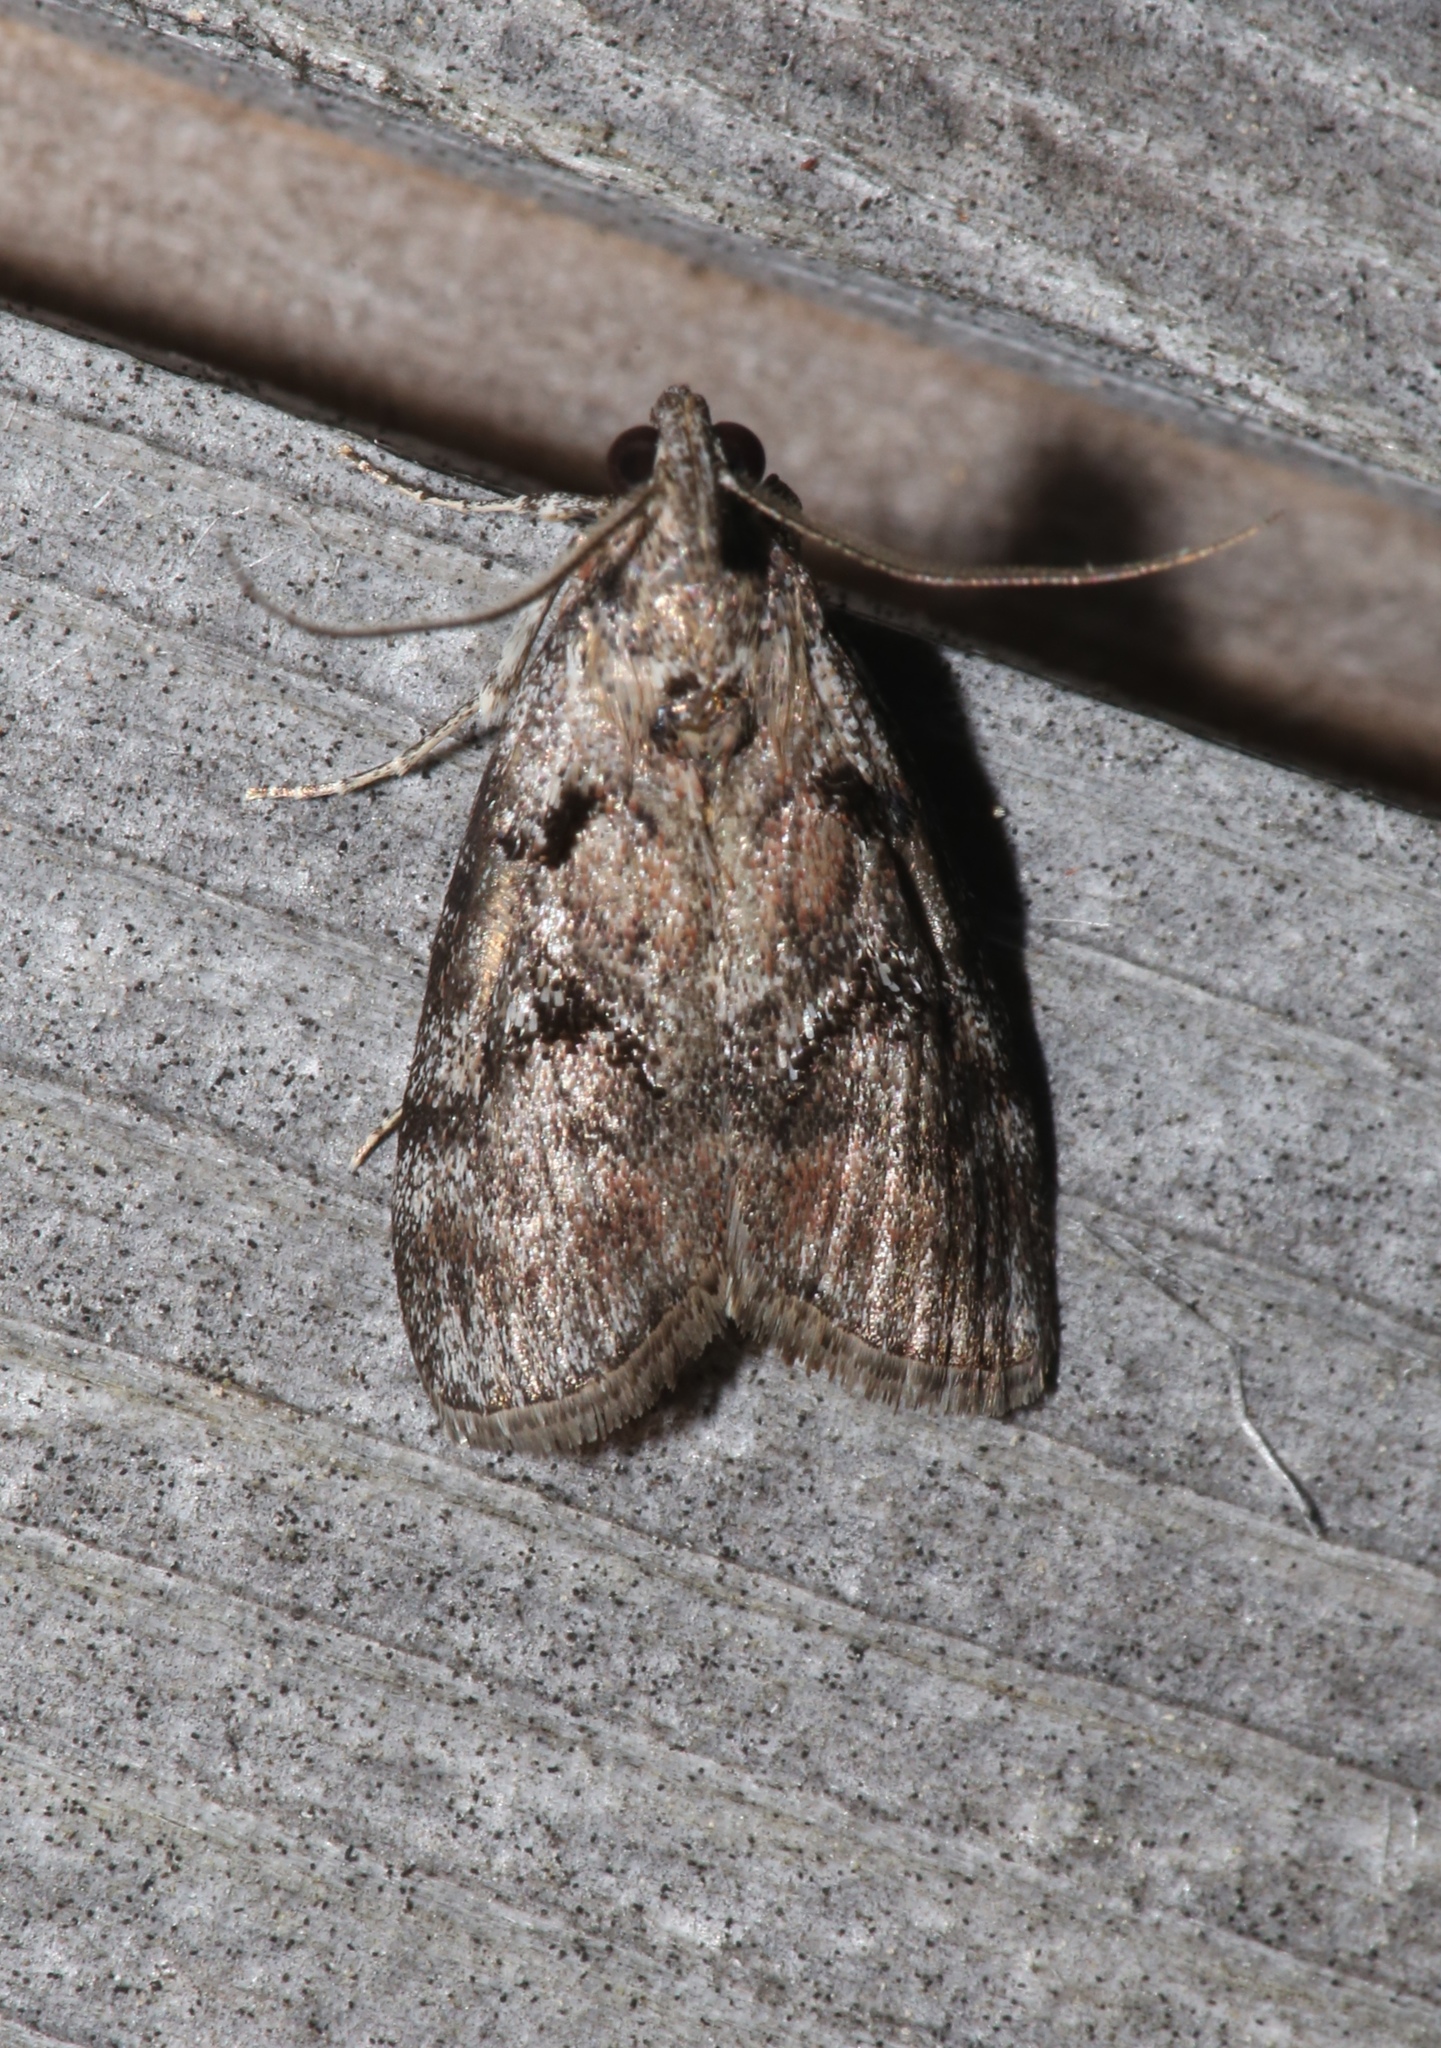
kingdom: Animalia
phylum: Arthropoda
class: Insecta
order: Lepidoptera
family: Pyralidae
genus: Pococera
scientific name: Pococera asperatella
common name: Maple webworm moth
